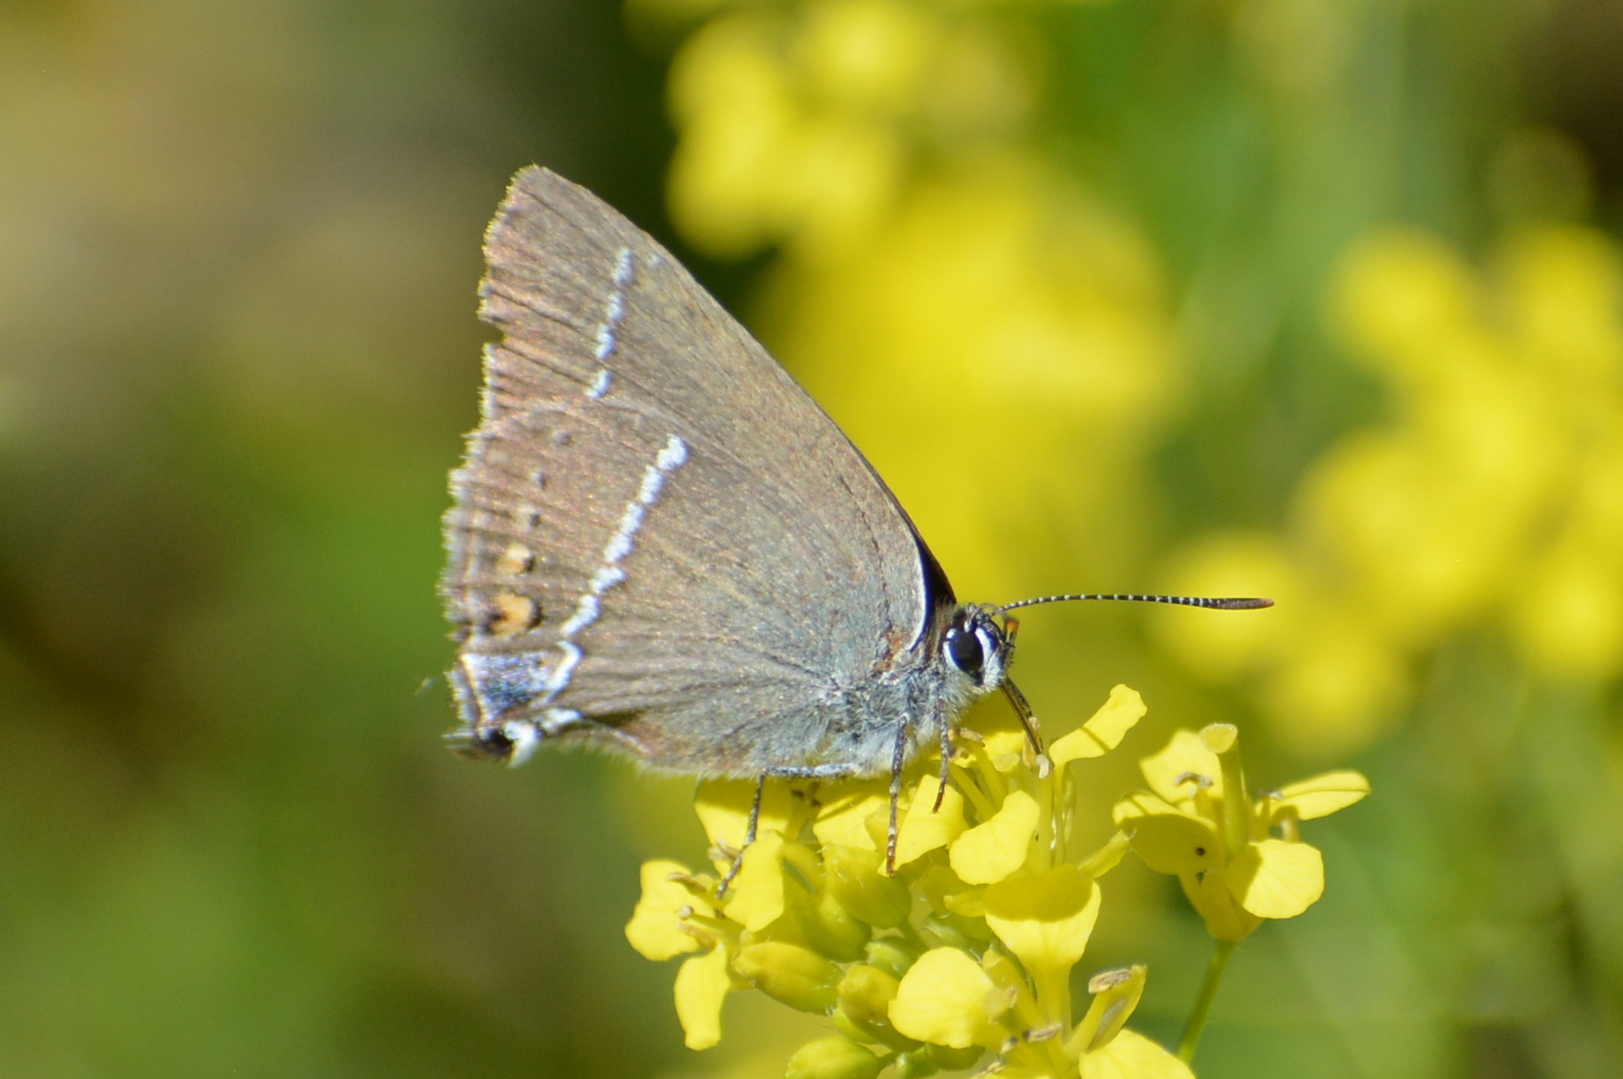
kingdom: Animalia
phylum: Arthropoda
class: Insecta
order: Lepidoptera
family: Lycaenidae
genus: Tuttiola
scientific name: Tuttiola spini
